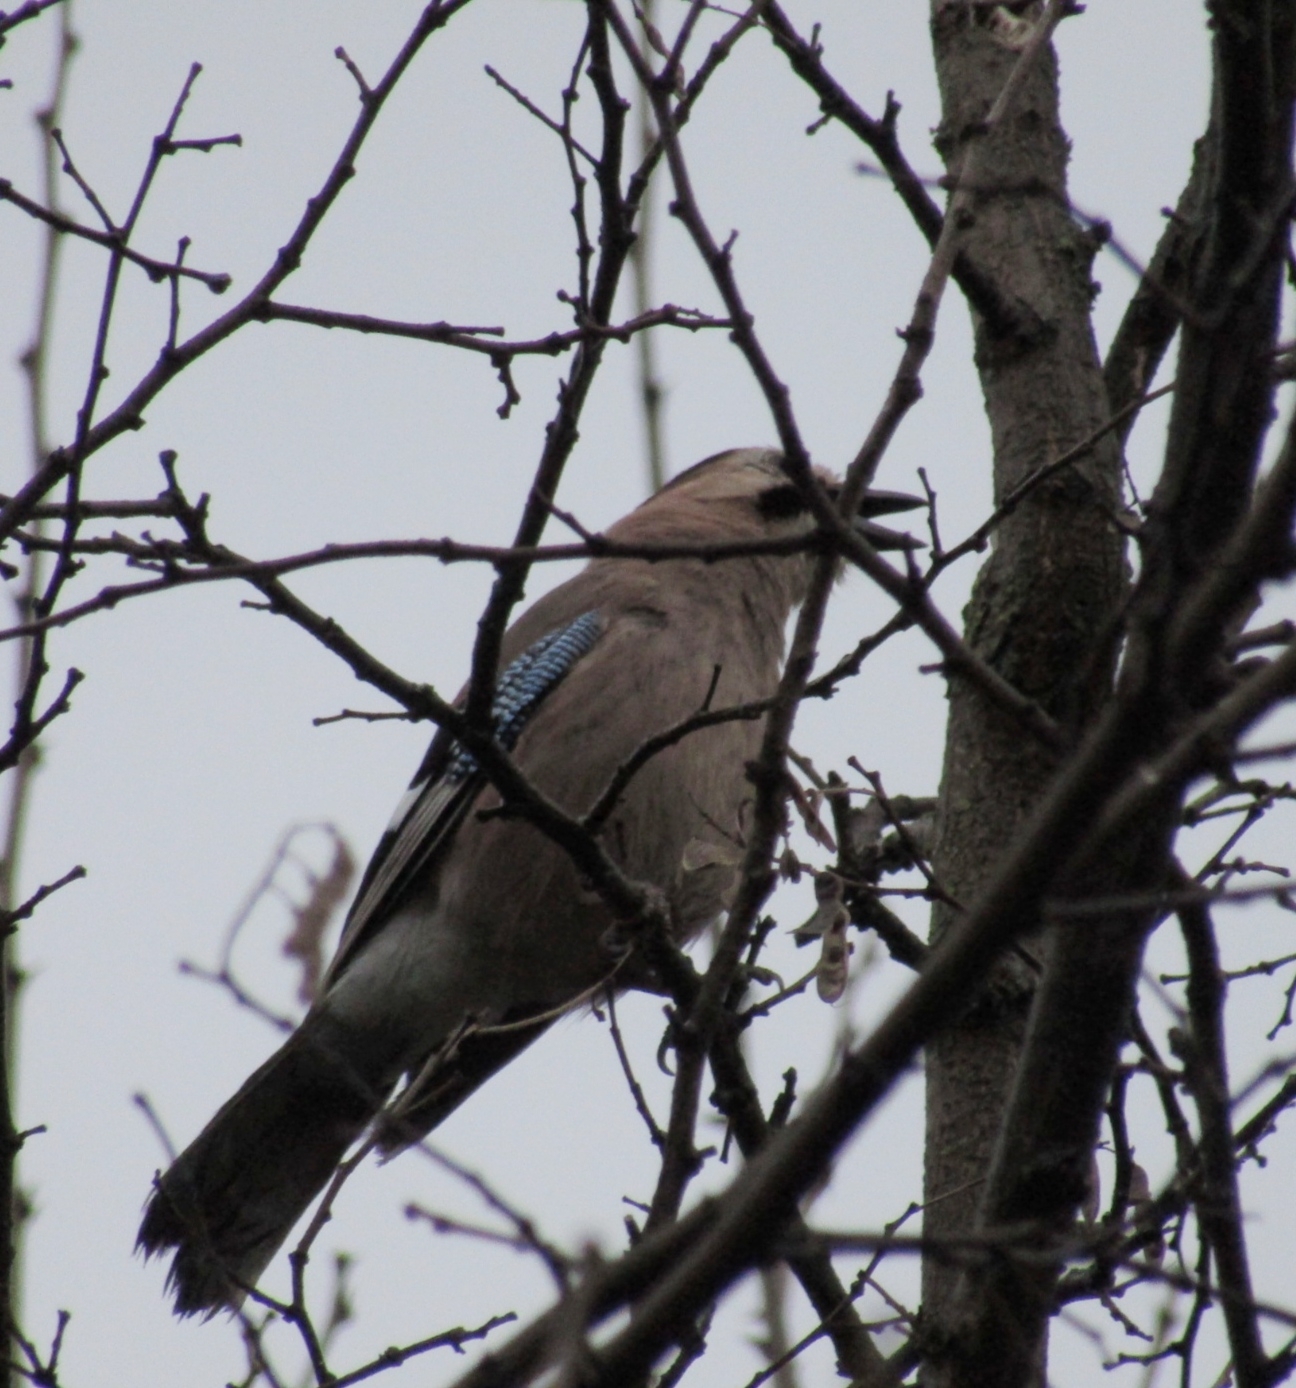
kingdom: Animalia
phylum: Chordata
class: Aves
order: Passeriformes
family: Corvidae
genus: Garrulus
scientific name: Garrulus glandarius
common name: Eurasian jay
